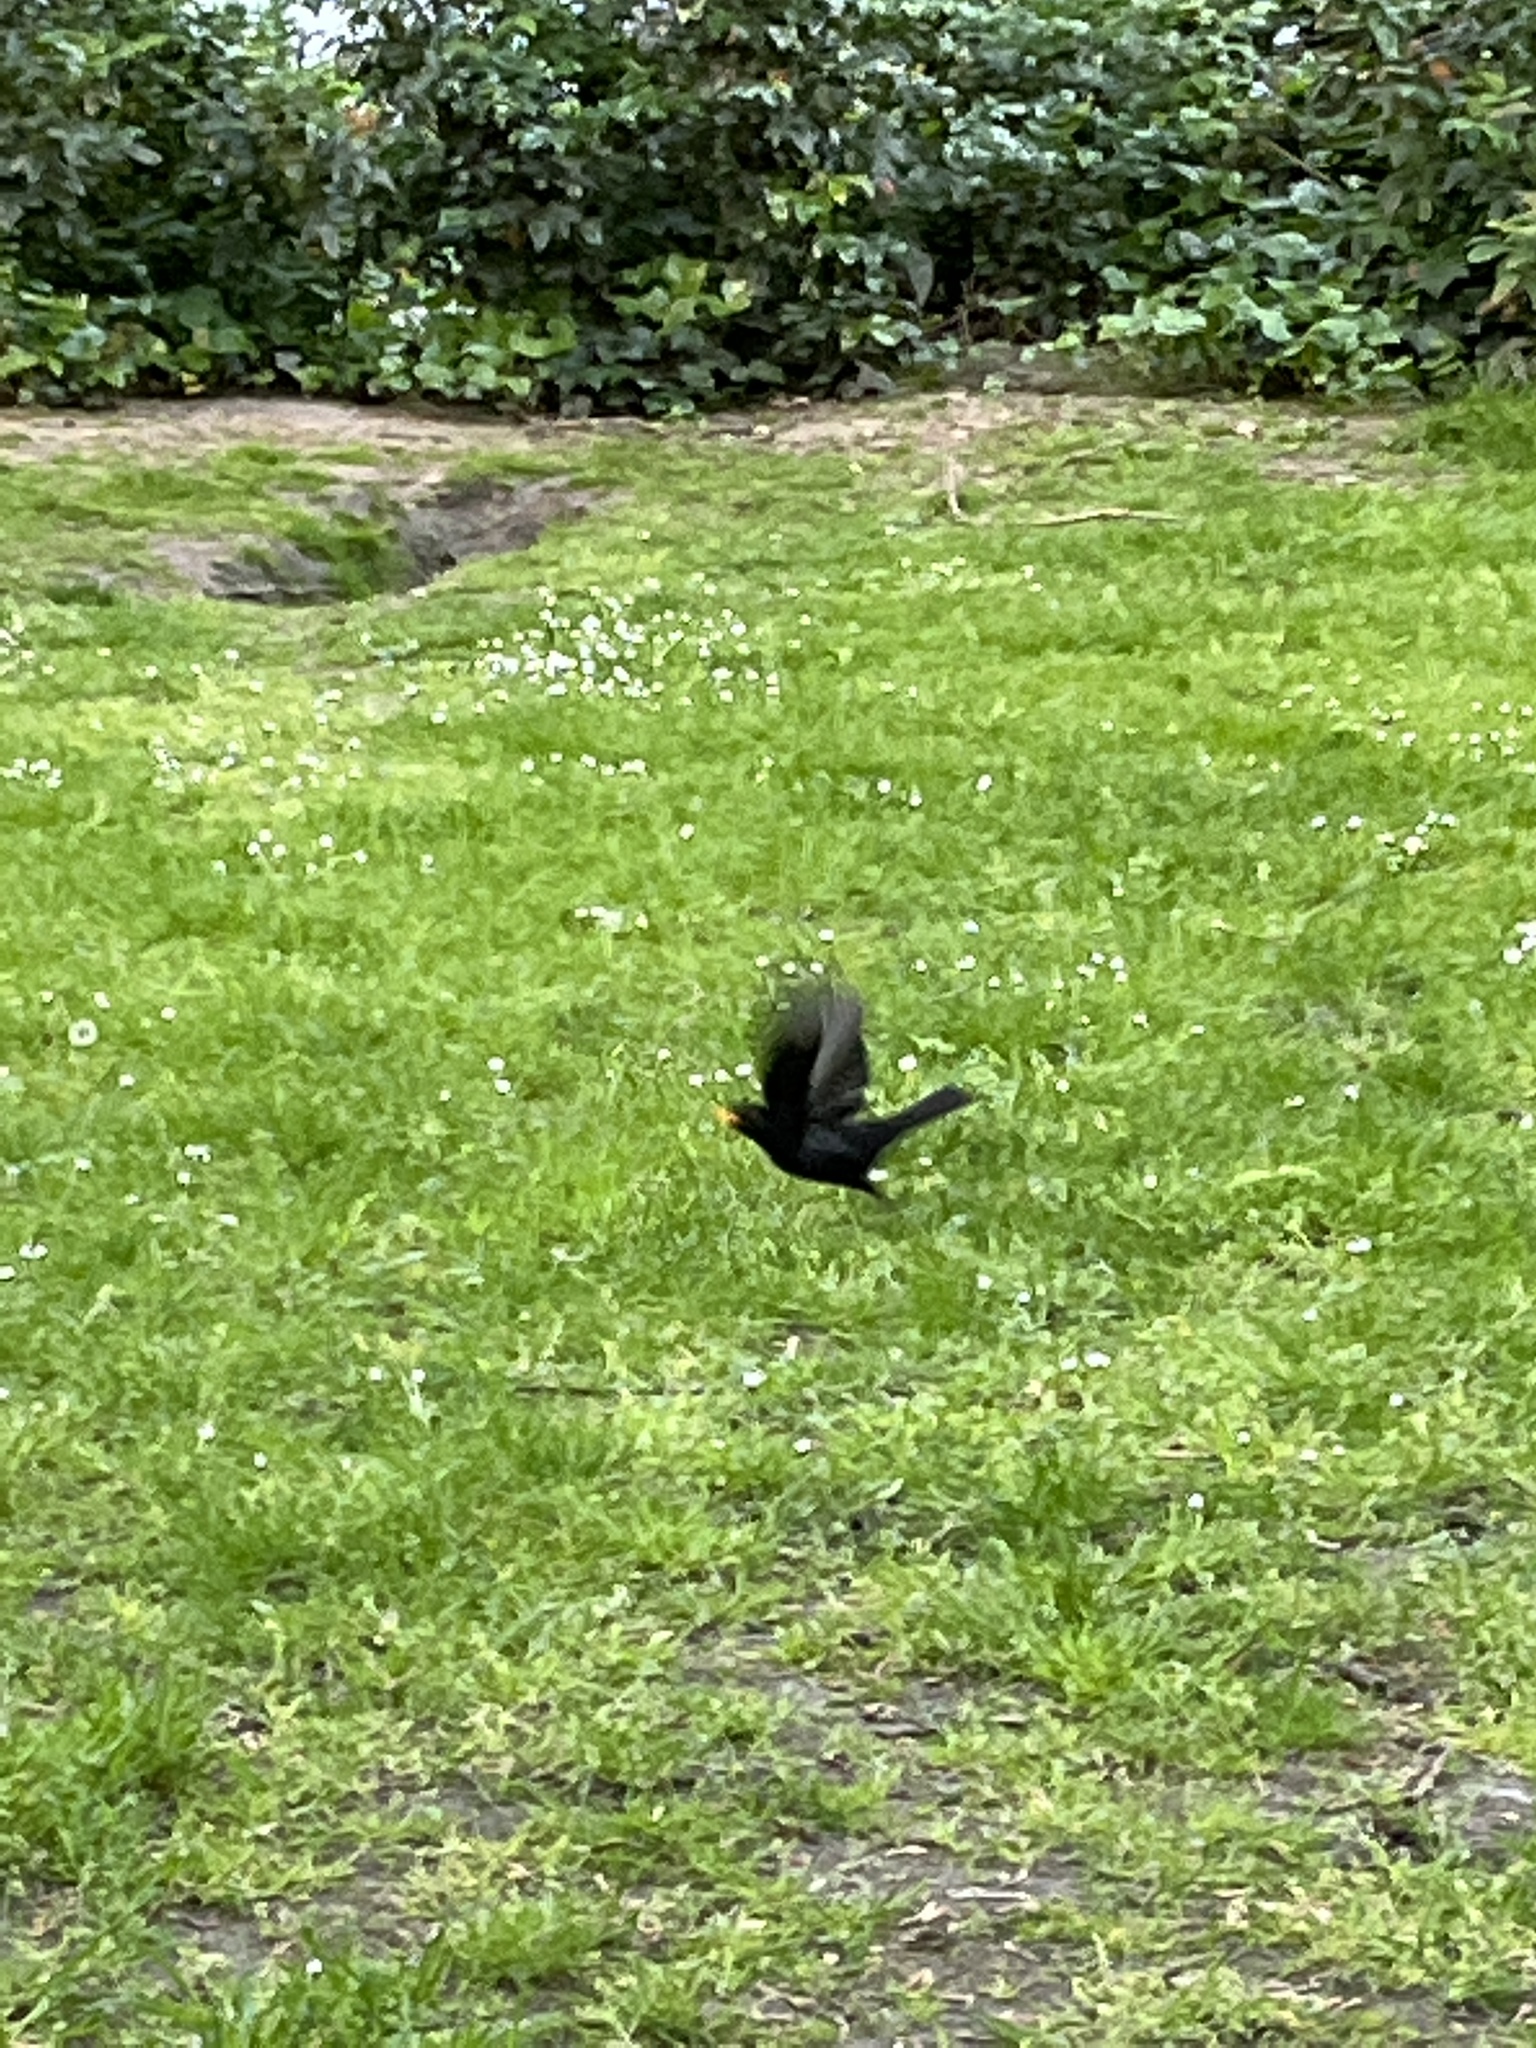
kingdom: Animalia
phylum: Chordata
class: Aves
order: Passeriformes
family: Turdidae
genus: Turdus
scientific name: Turdus merula
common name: Common blackbird
